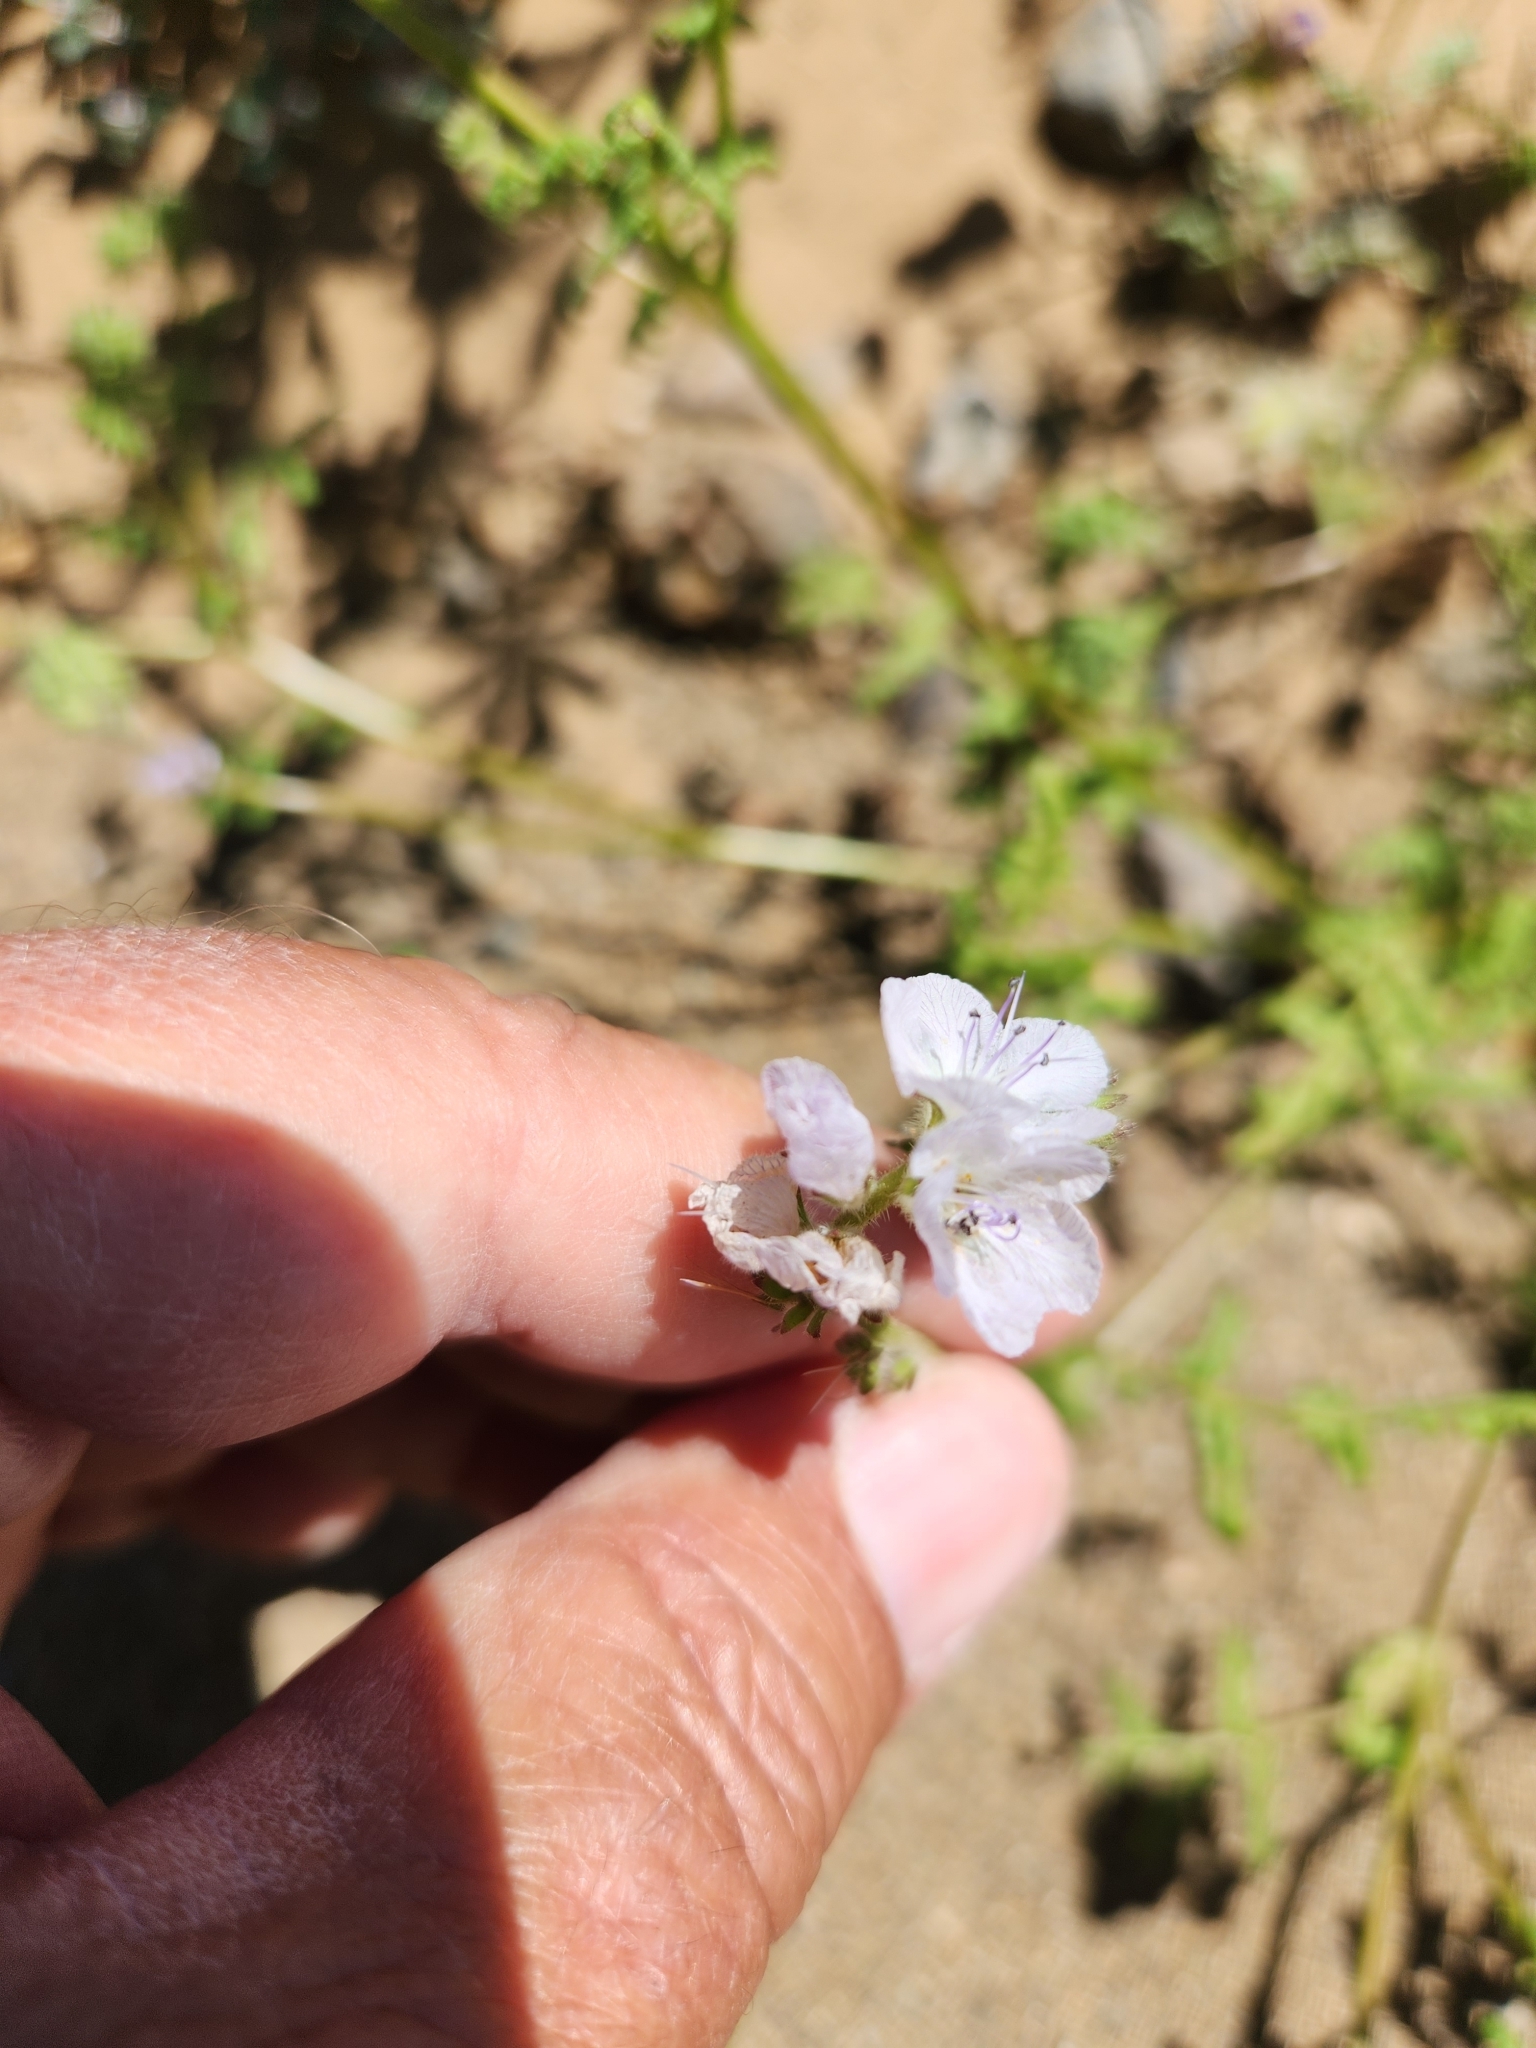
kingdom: Plantae
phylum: Tracheophyta
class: Magnoliopsida
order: Boraginales
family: Hydrophyllaceae
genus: Phacelia
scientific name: Phacelia distans
